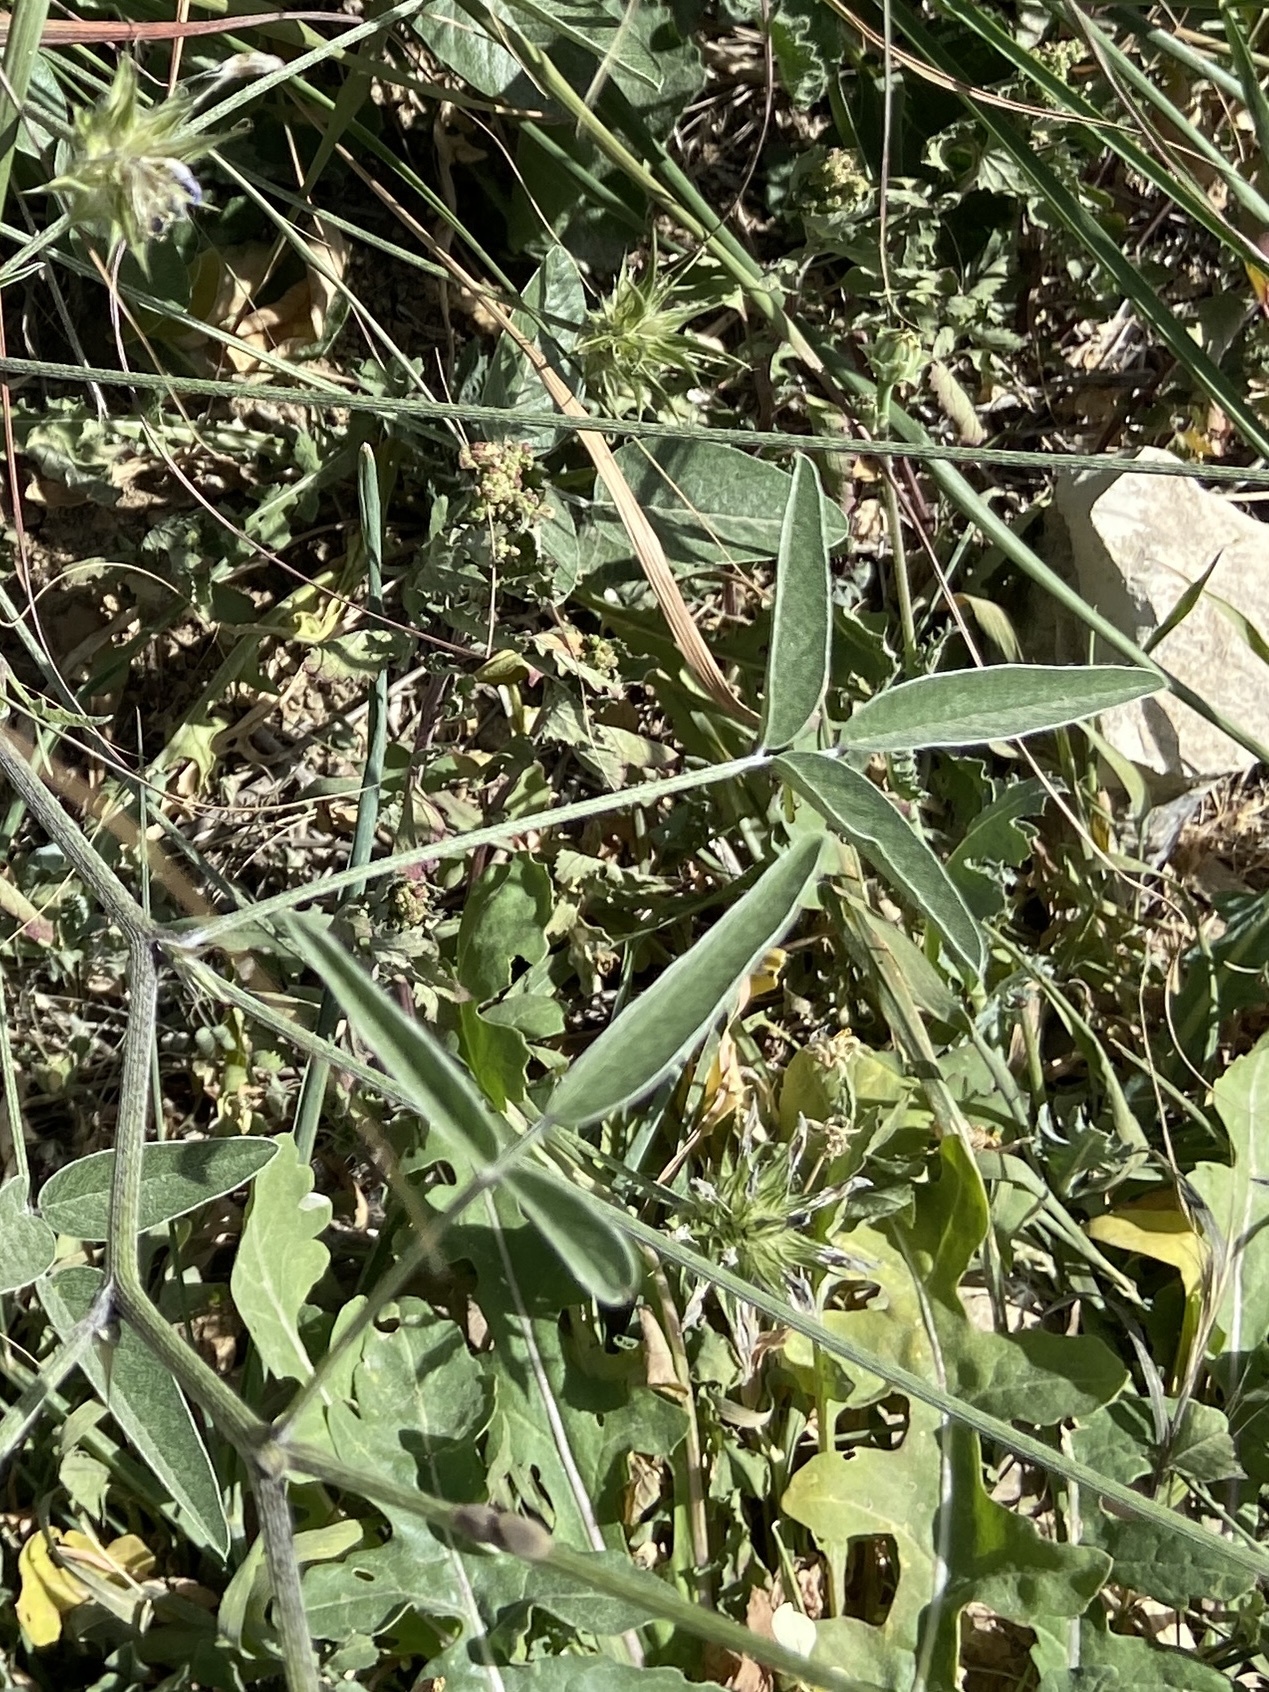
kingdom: Plantae
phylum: Tracheophyta
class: Magnoliopsida
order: Fabales
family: Fabaceae
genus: Bituminaria
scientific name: Bituminaria bituminosa
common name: Arabian pea
